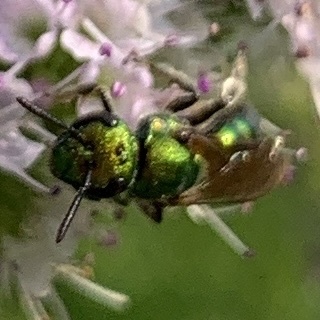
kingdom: Animalia
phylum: Arthropoda
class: Insecta
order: Hymenoptera
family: Halictidae
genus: Augochlora
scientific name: Augochlora pura
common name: Pure green sweat bee
